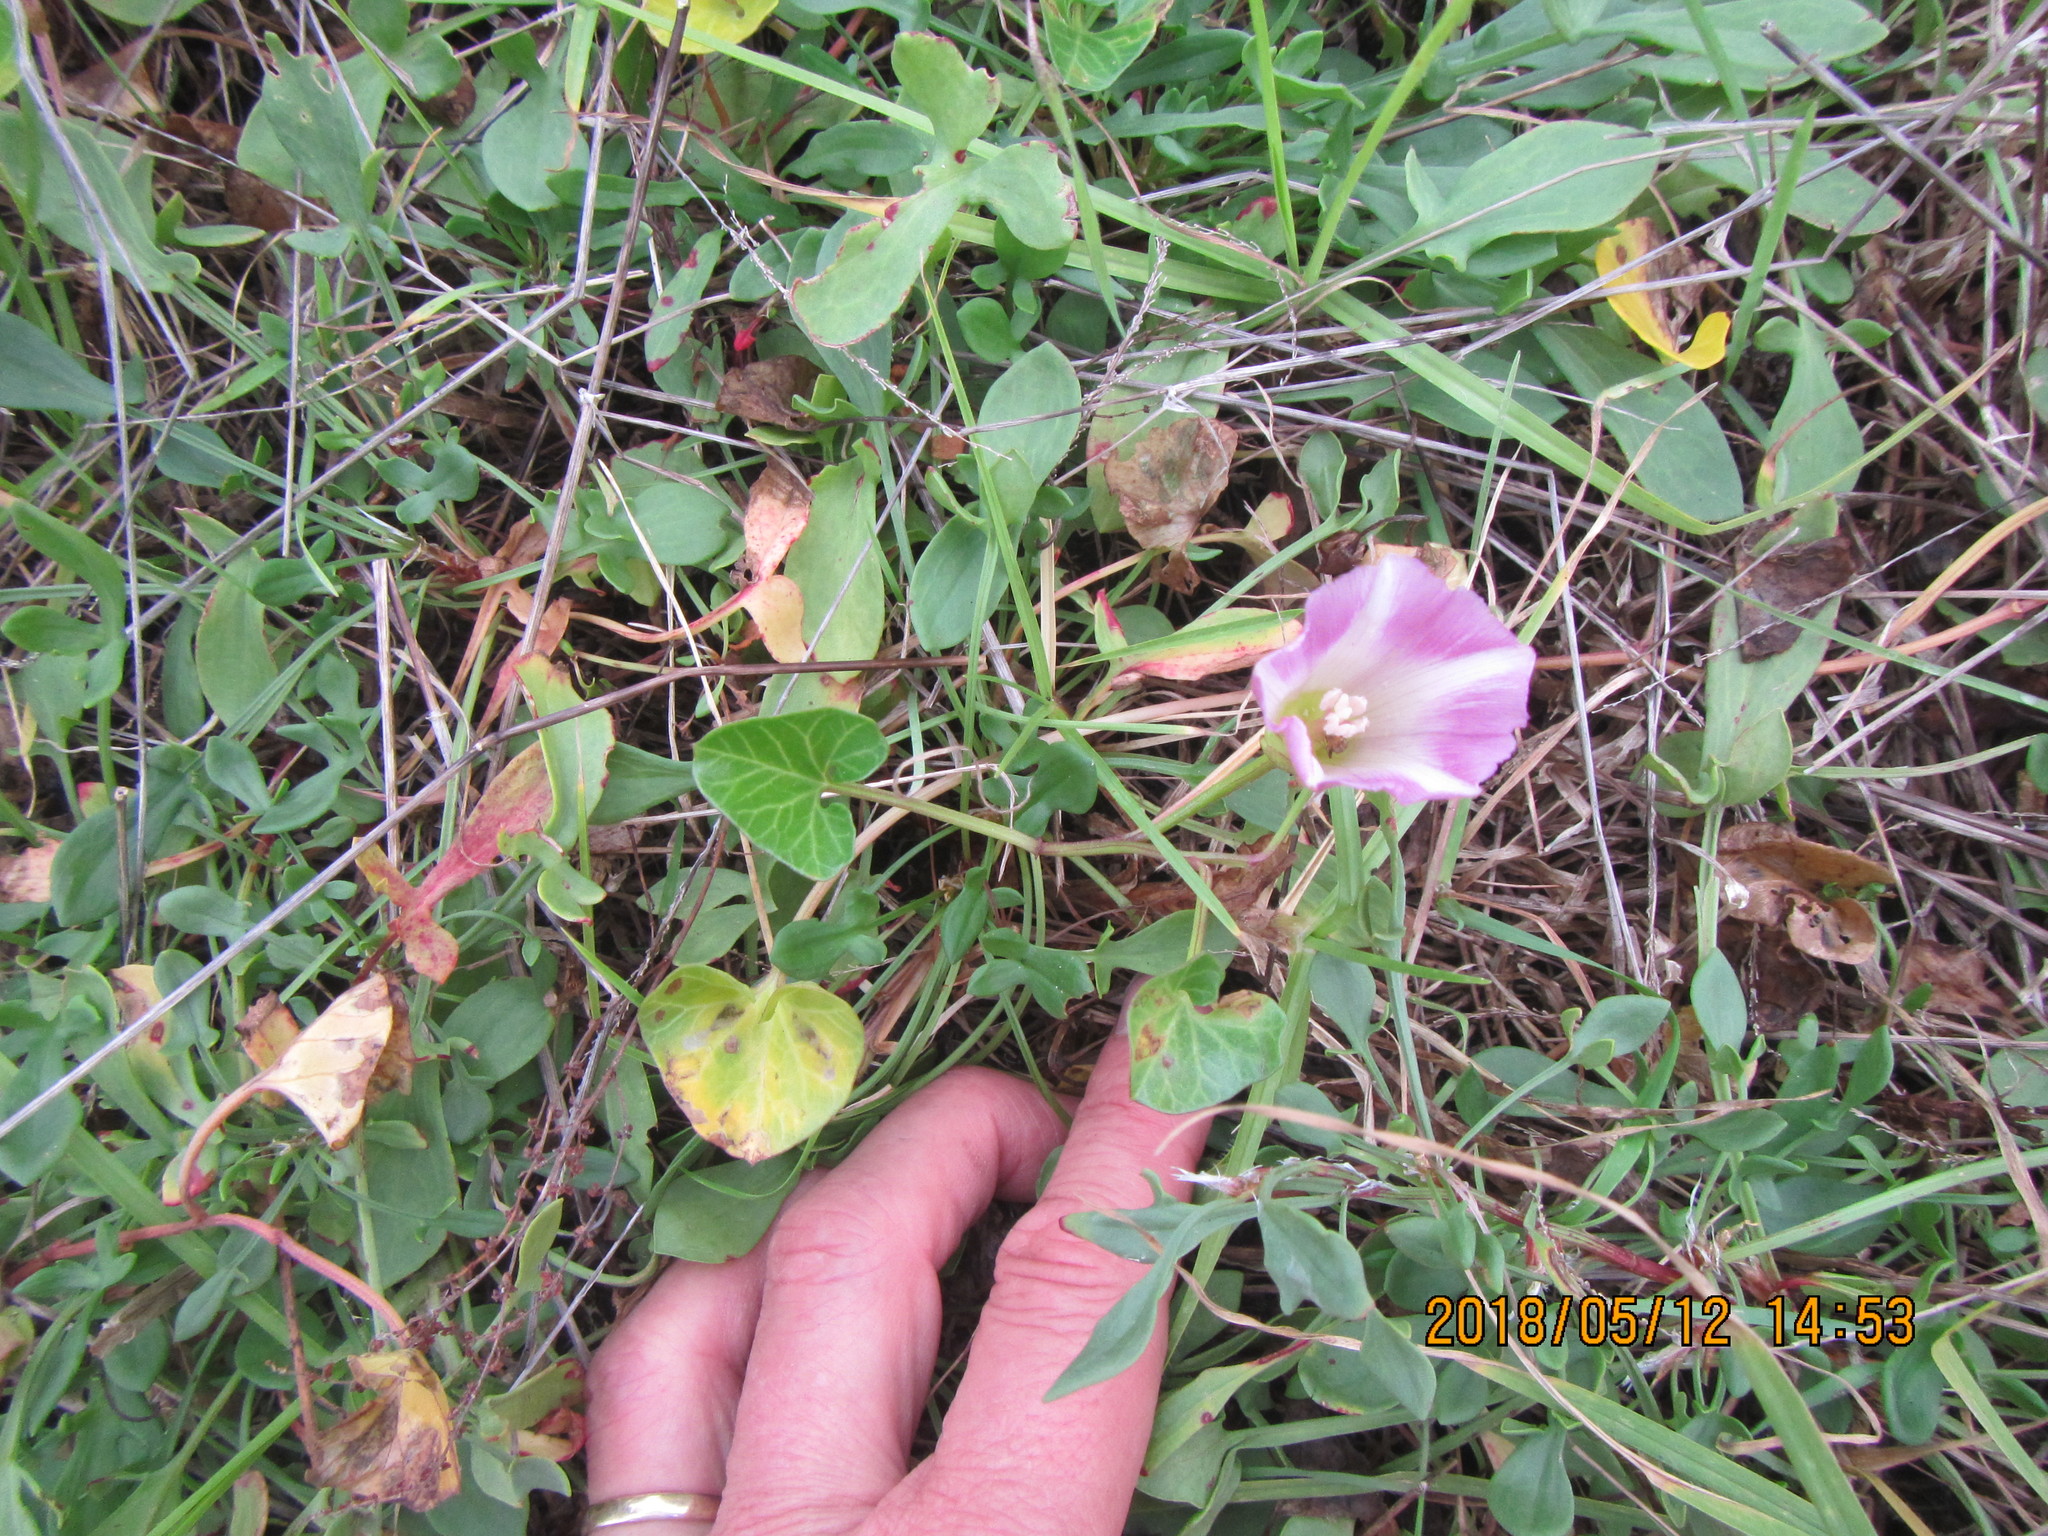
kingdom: Plantae
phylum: Tracheophyta
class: Magnoliopsida
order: Solanales
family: Convolvulaceae
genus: Calystegia
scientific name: Calystegia soldanella
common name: Sea bindweed
